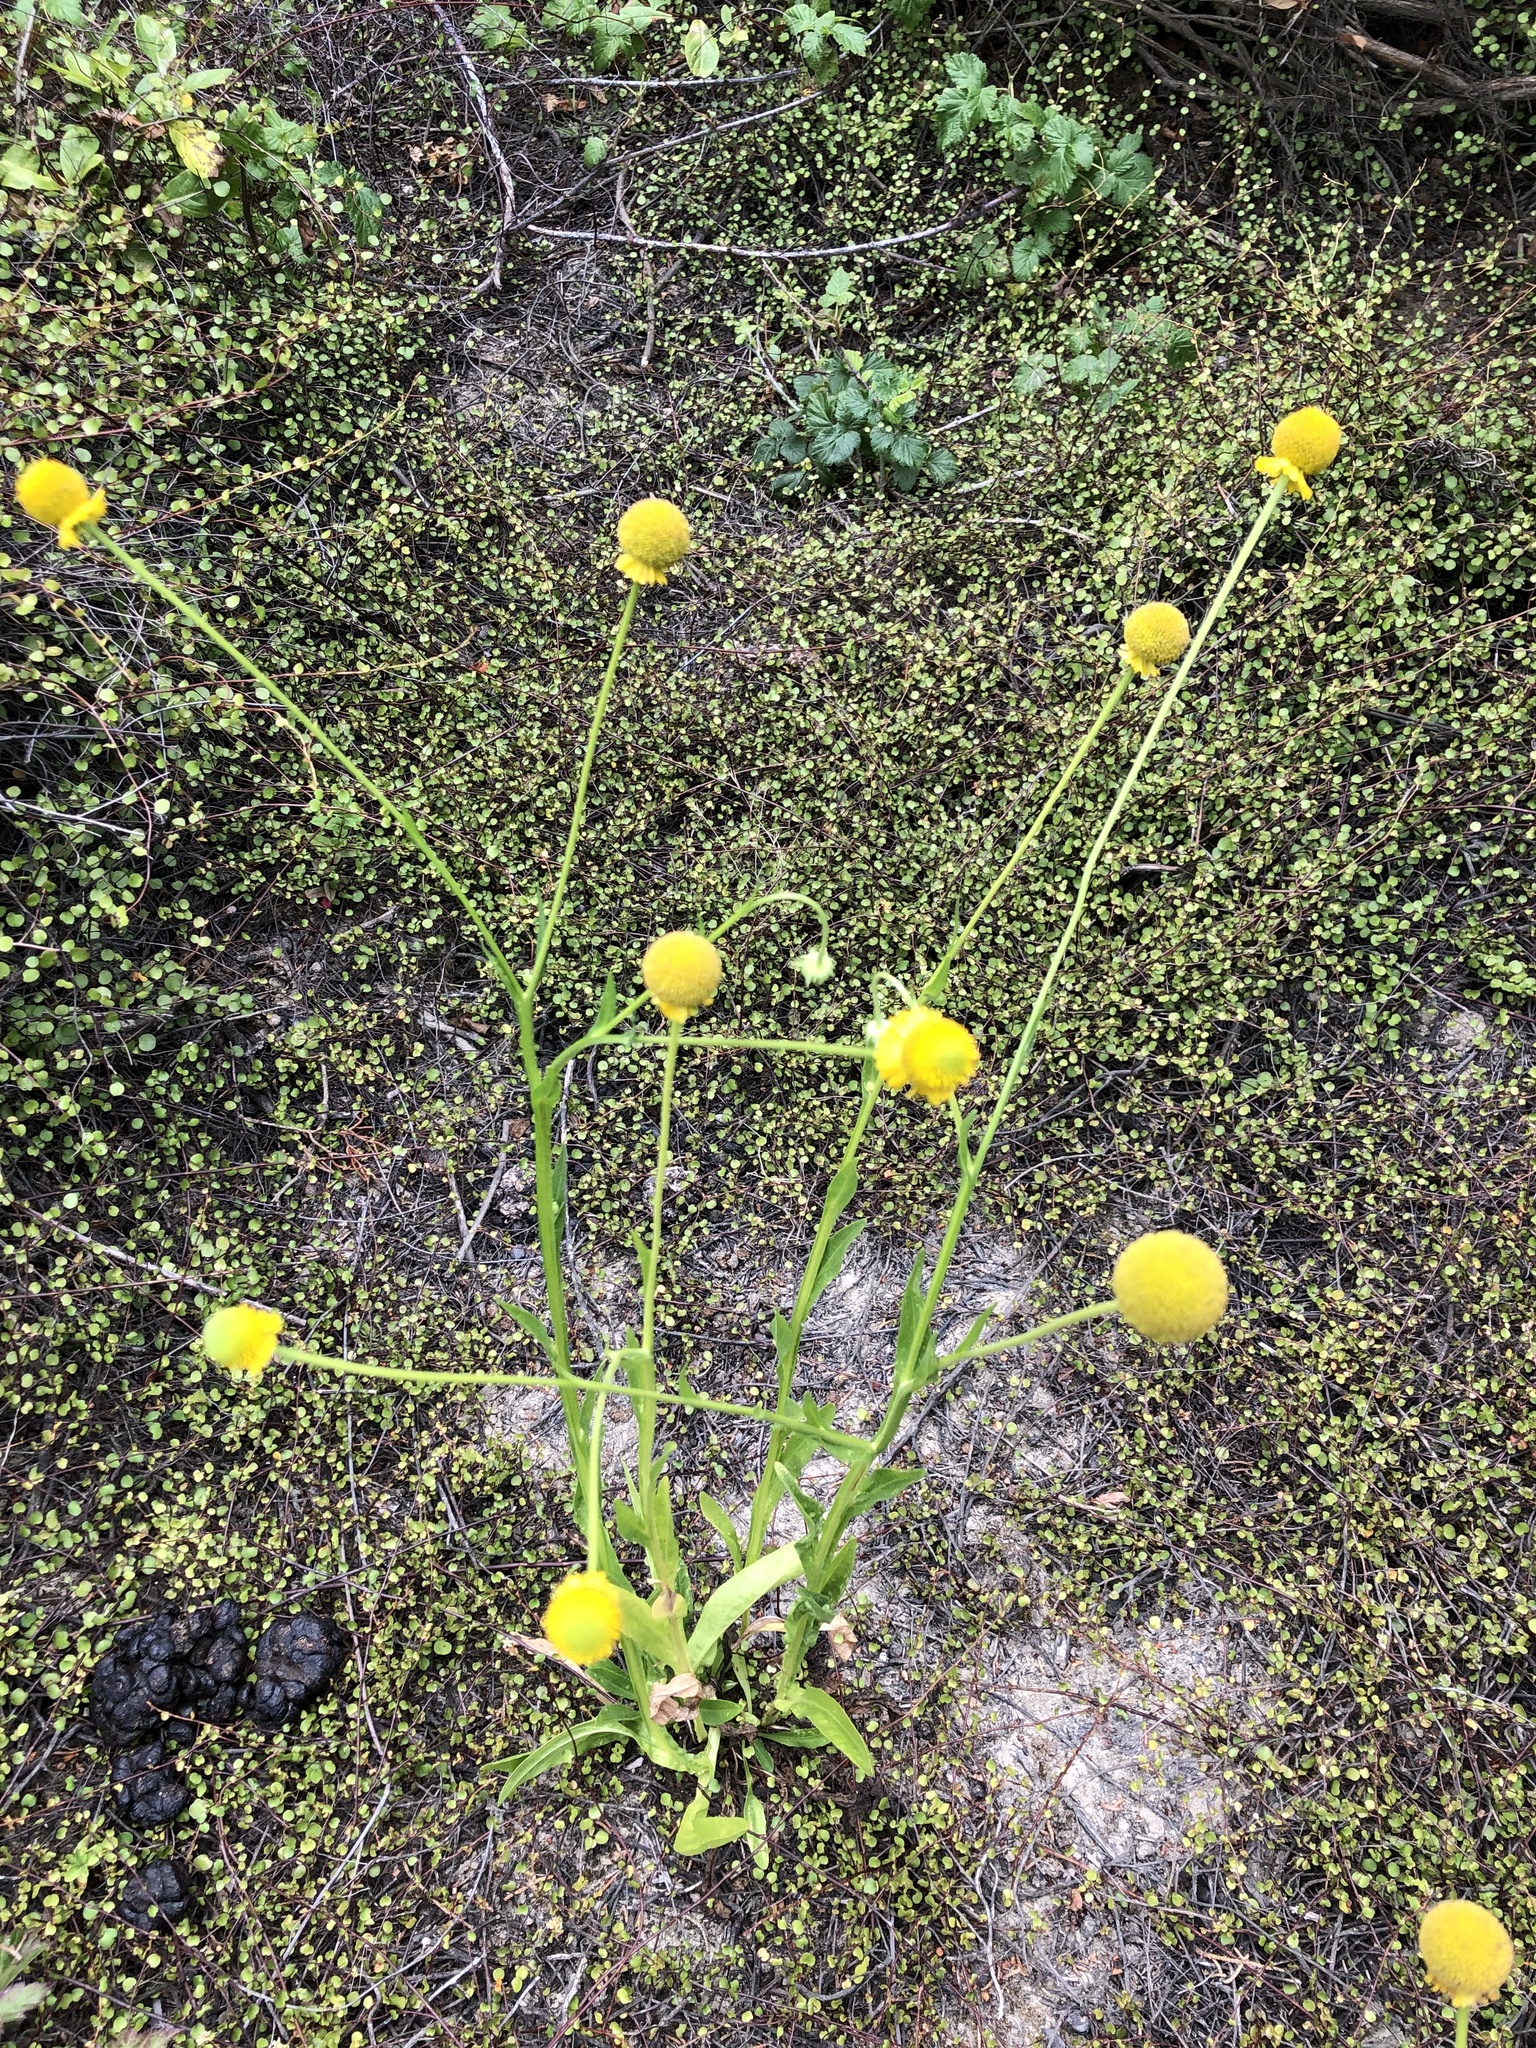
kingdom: Plantae
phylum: Tracheophyta
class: Magnoliopsida
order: Asterales
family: Asteraceae
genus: Helenium
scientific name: Helenium puberulum
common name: Sneezewort
